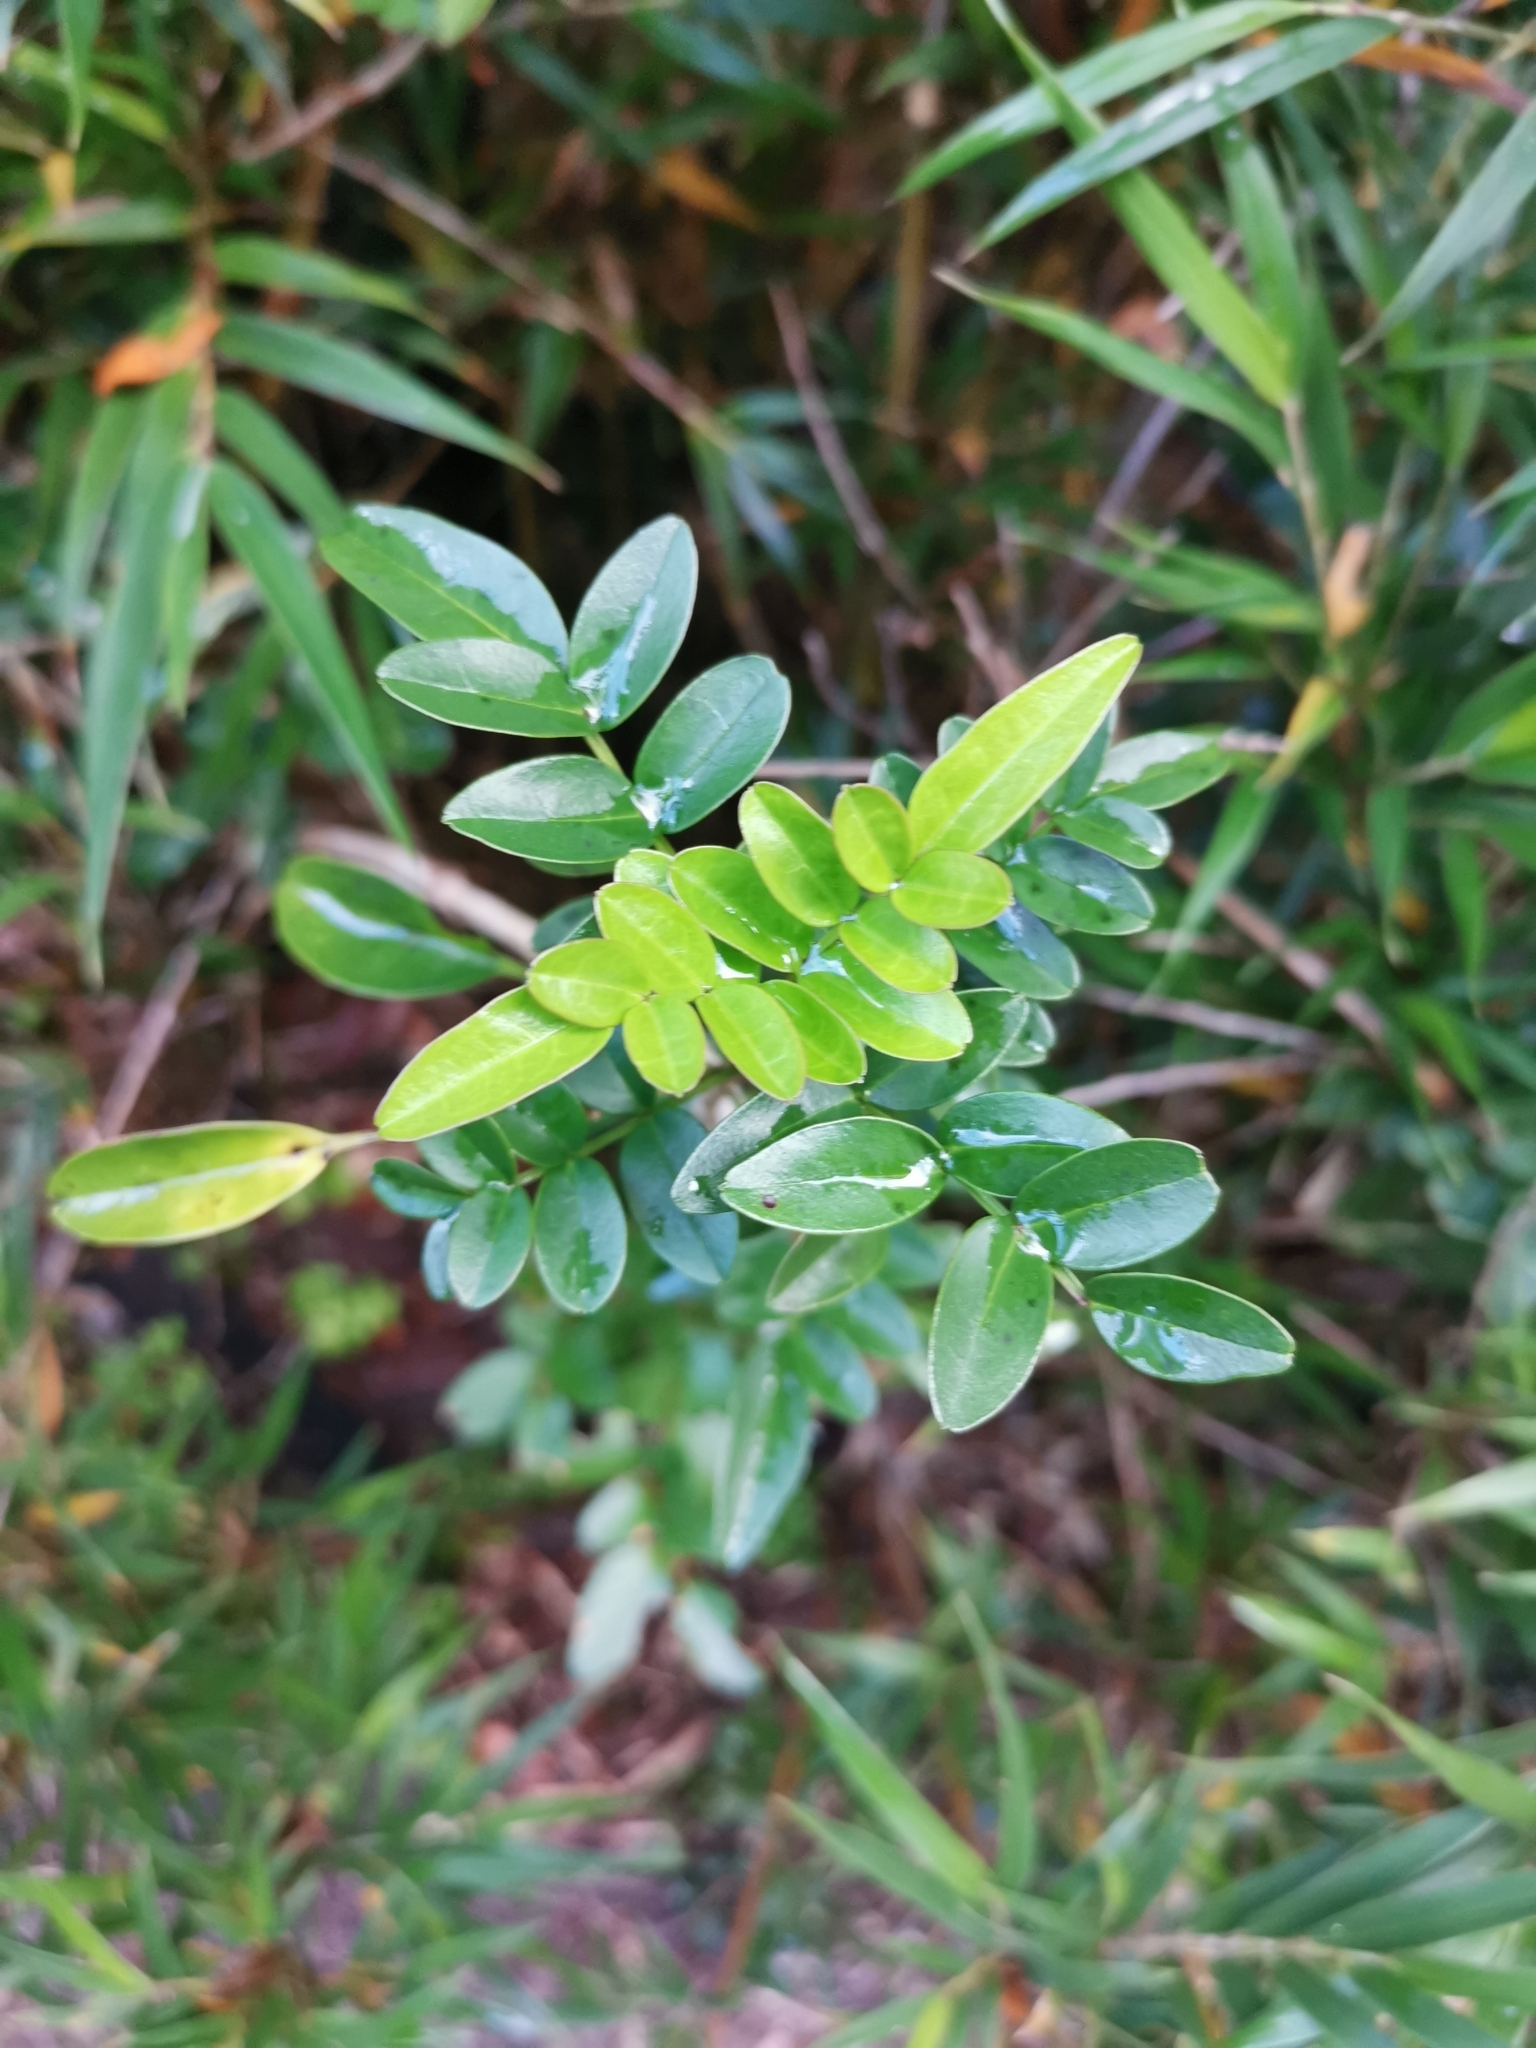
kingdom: Plantae
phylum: Tracheophyta
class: Magnoliopsida
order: Lamiales
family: Bignoniaceae
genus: Campsidium
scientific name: Campsidium valdivianum
